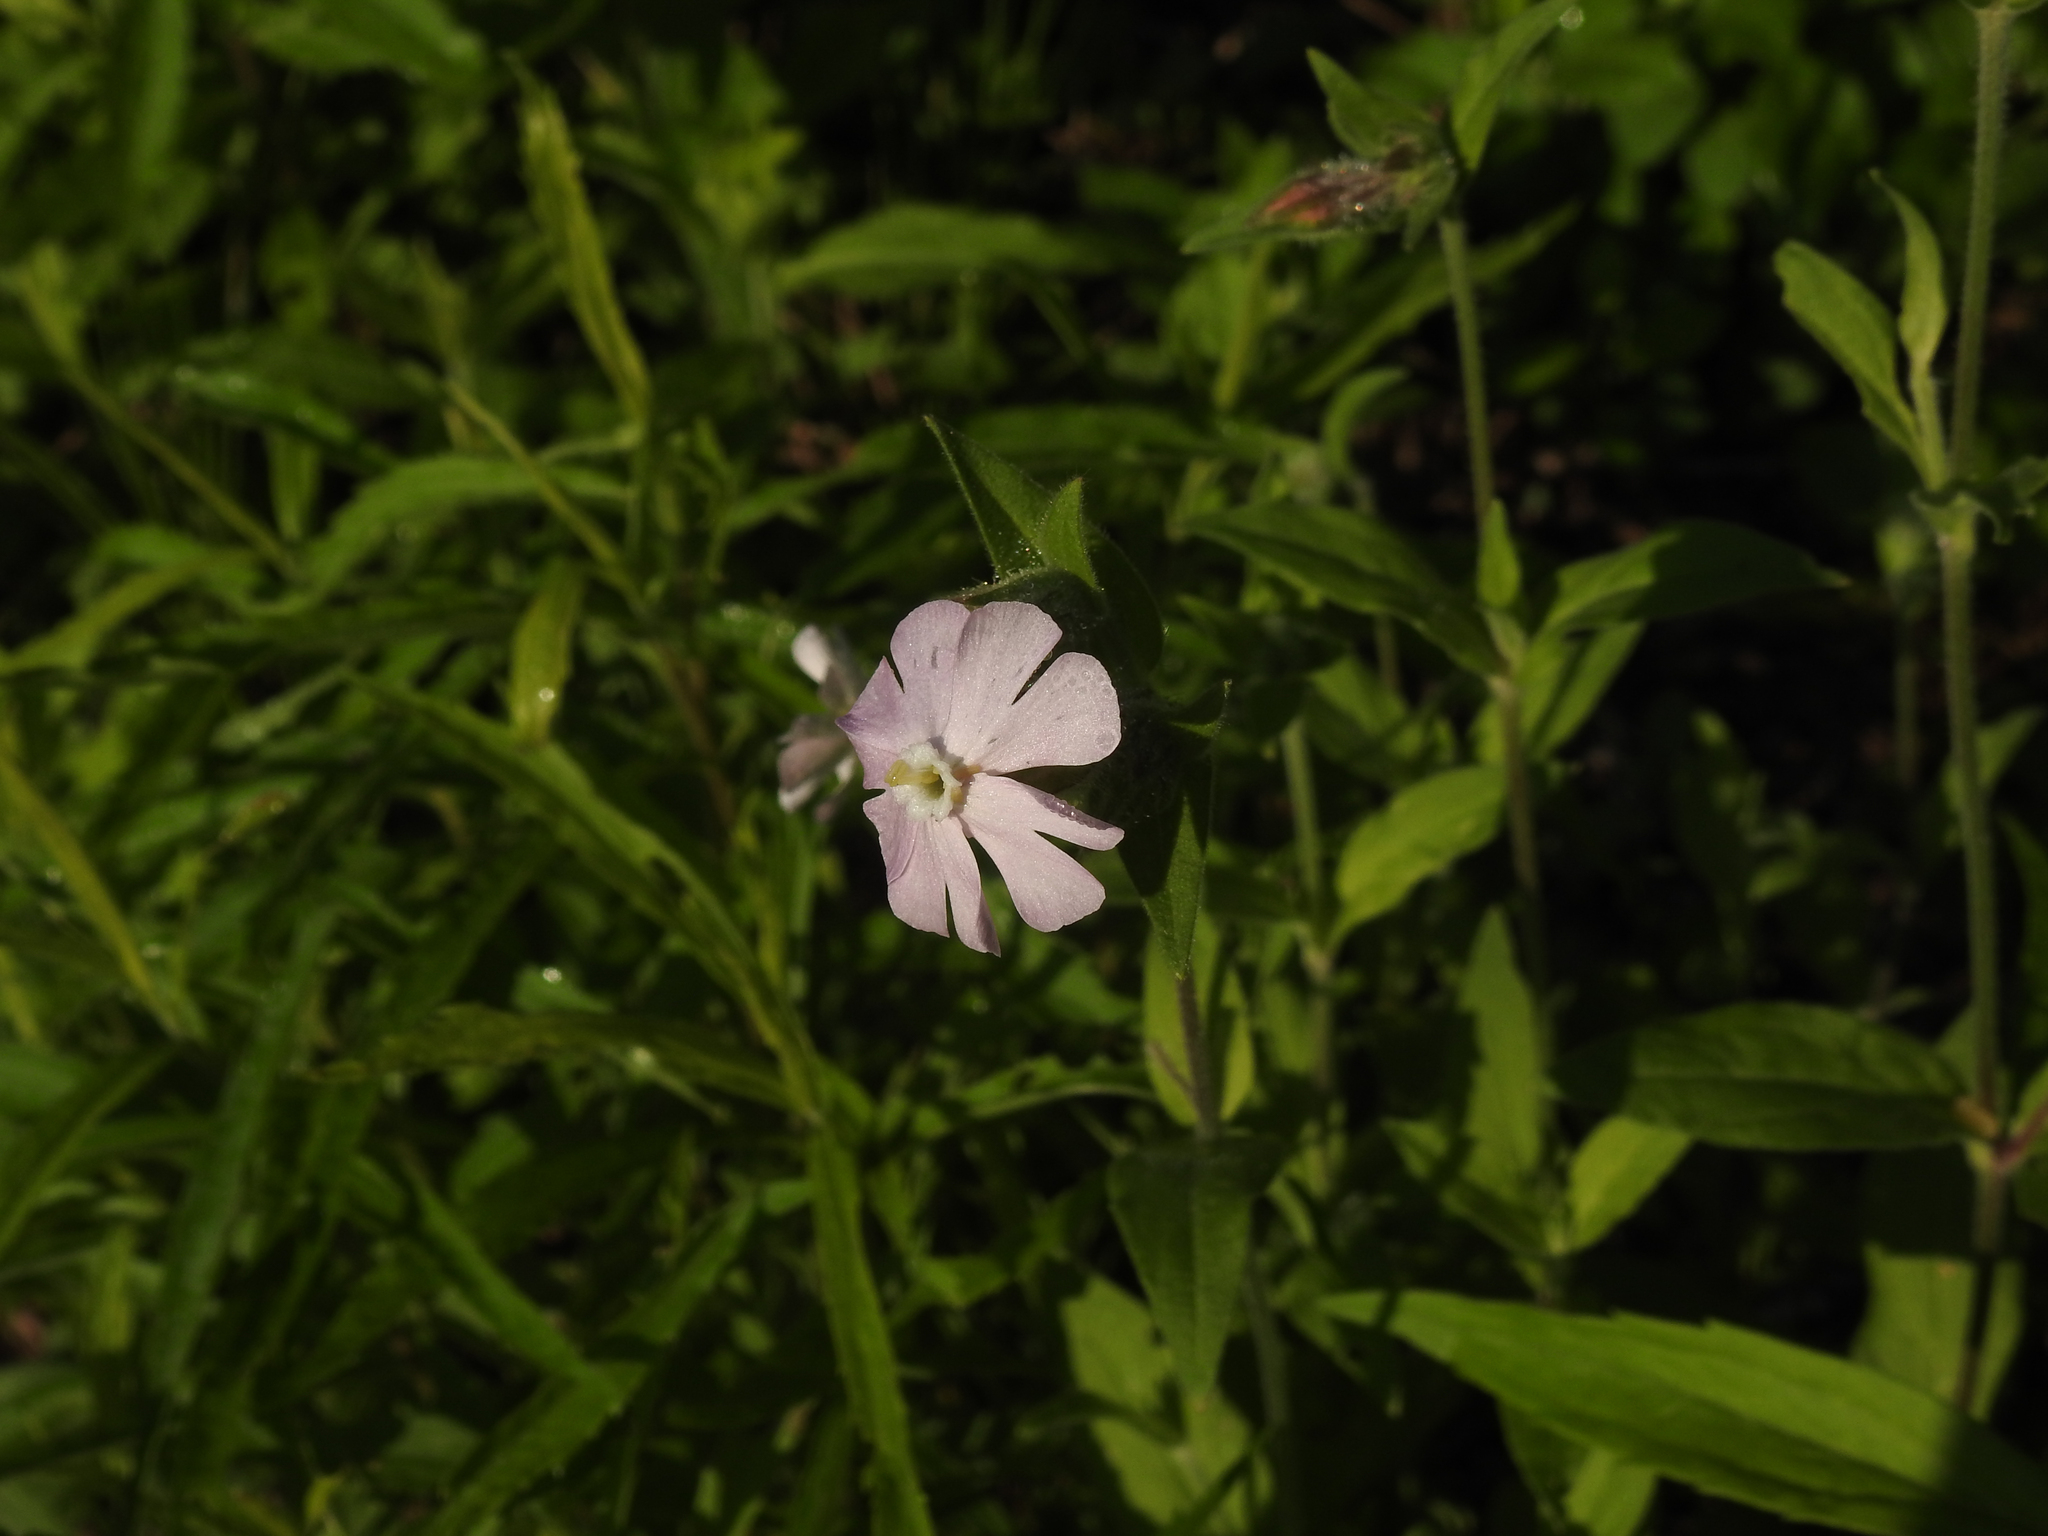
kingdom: Plantae
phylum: Tracheophyta
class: Magnoliopsida
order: Caryophyllales
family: Caryophyllaceae
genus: Silene
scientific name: Silene latifolia
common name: White campion
